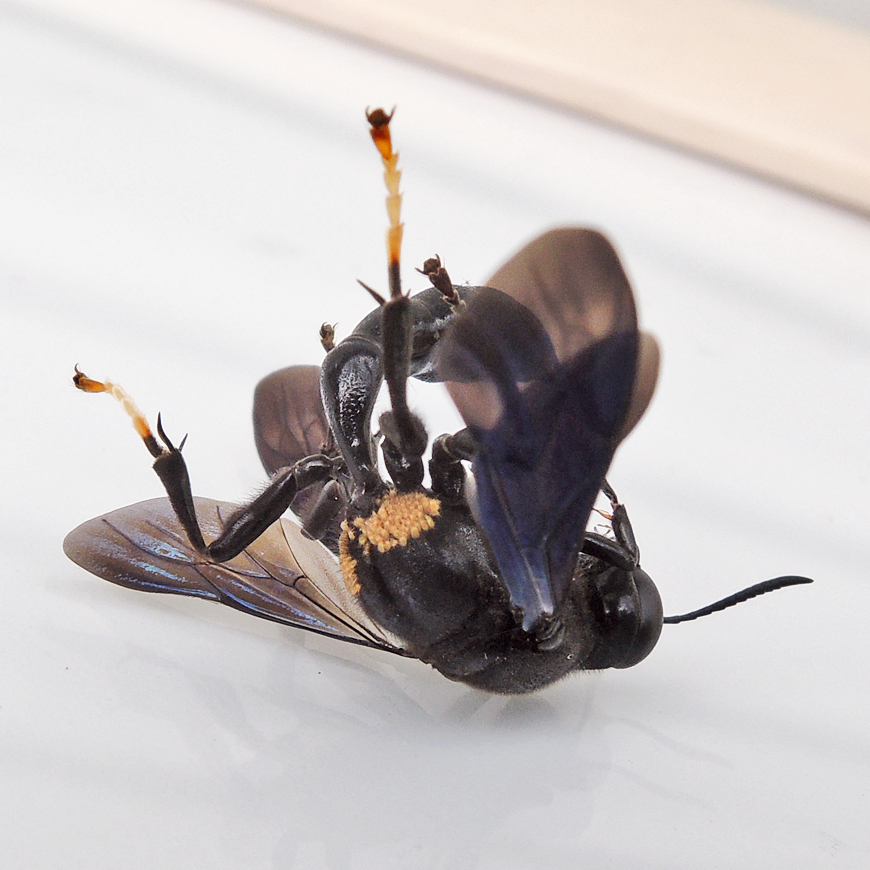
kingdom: Animalia
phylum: Arthropoda
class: Insecta
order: Hymenoptera
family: Crabronidae
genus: Trypoxylon
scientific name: Trypoxylon politum
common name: Organ-pipe mud-dauber wasp
